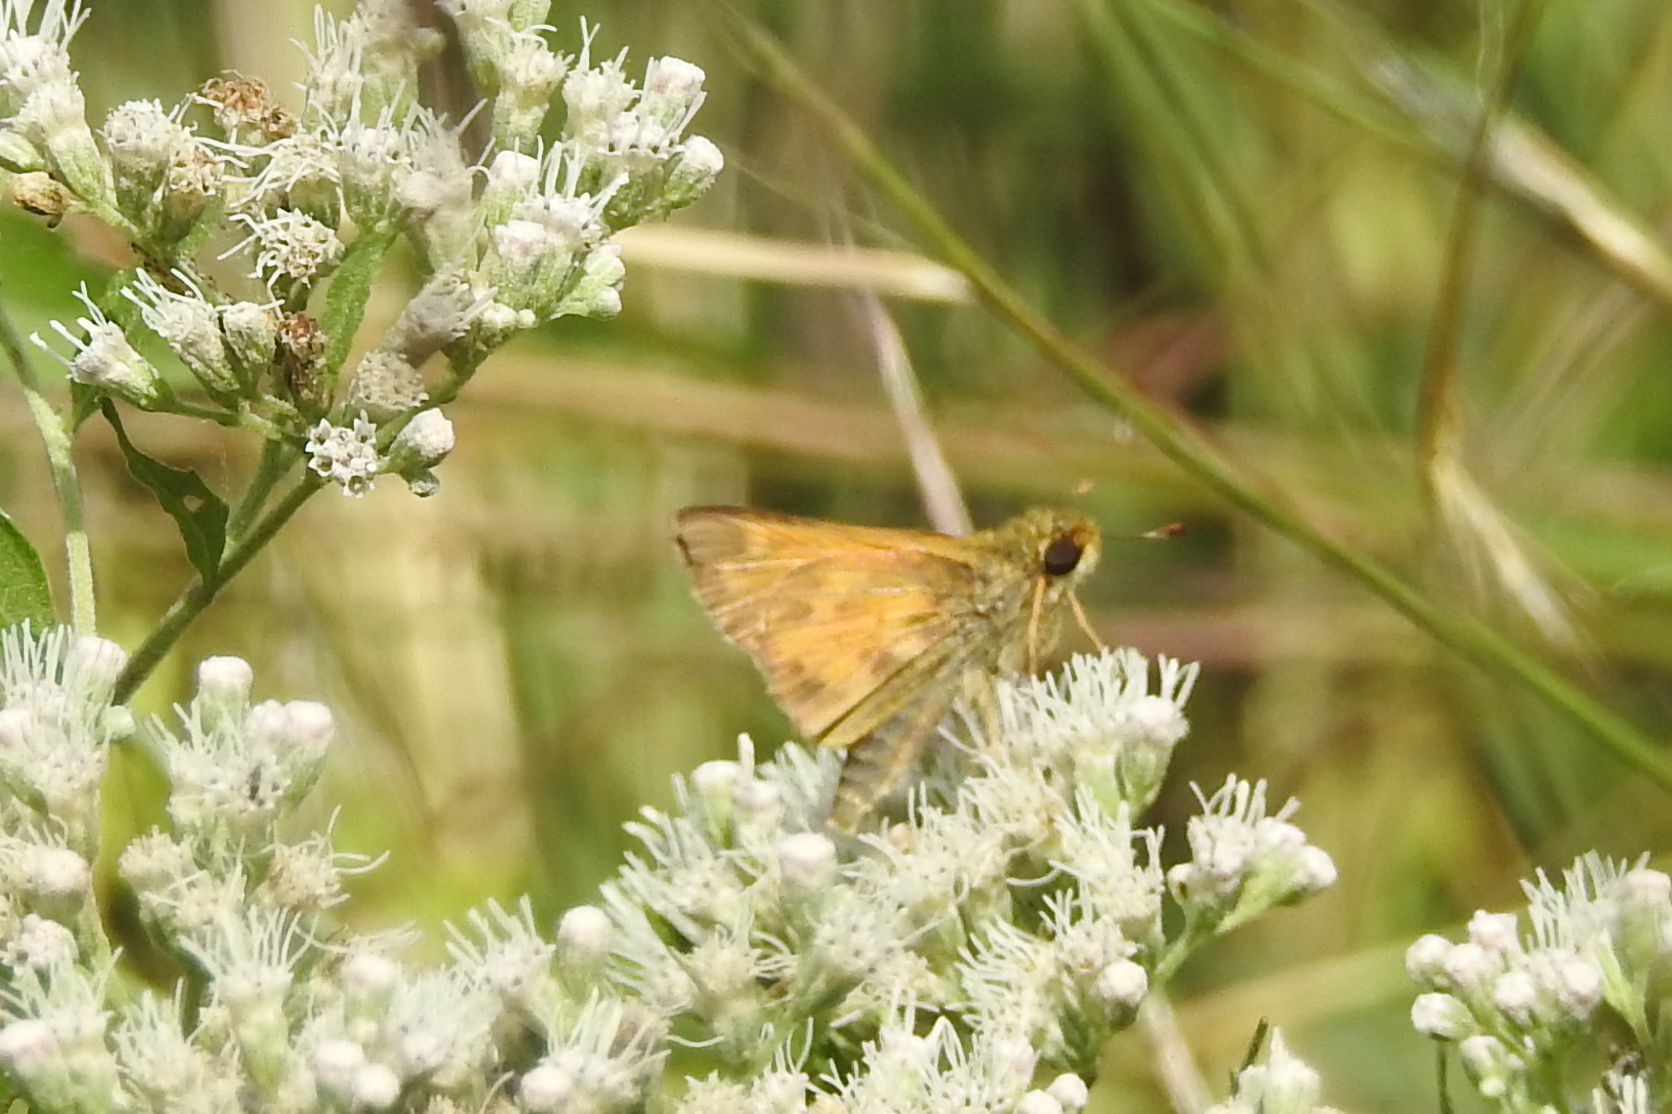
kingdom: Animalia
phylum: Arthropoda
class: Insecta
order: Lepidoptera
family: Hesperiidae
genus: Atalopedes
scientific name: Atalopedes
